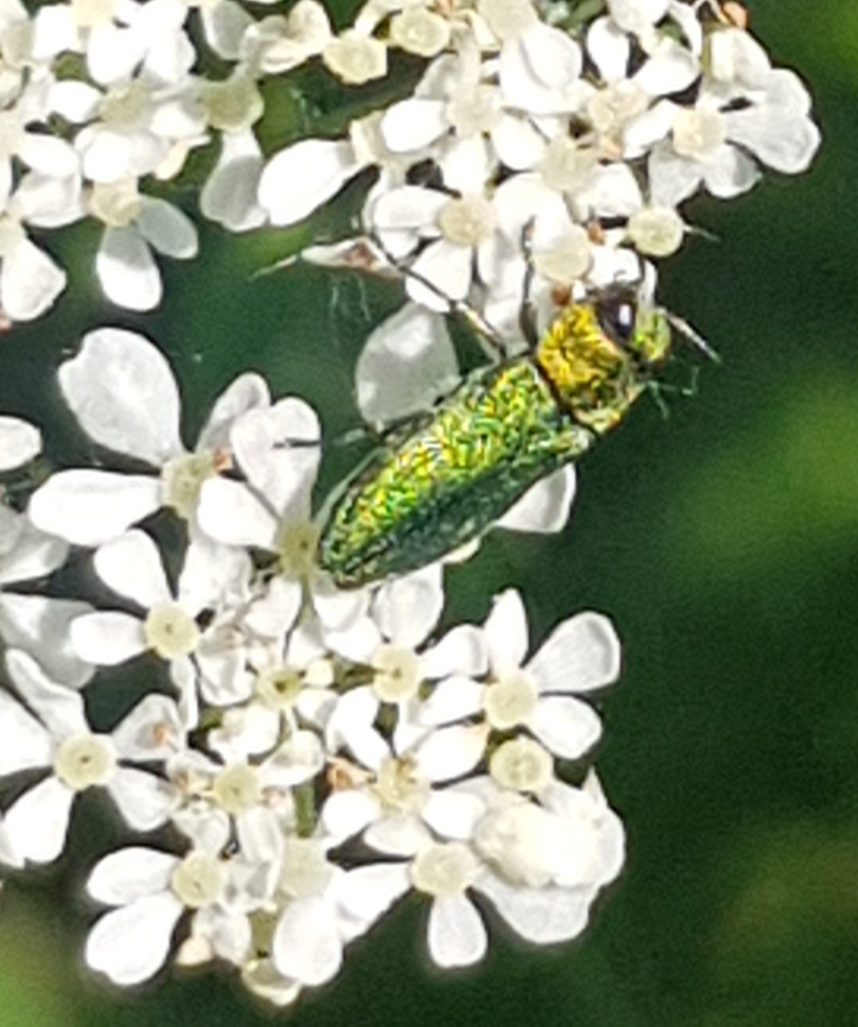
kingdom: Animalia
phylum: Arthropoda
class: Insecta
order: Coleoptera
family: Buprestidae
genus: Anthaxia
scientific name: Anthaxia nitidula
